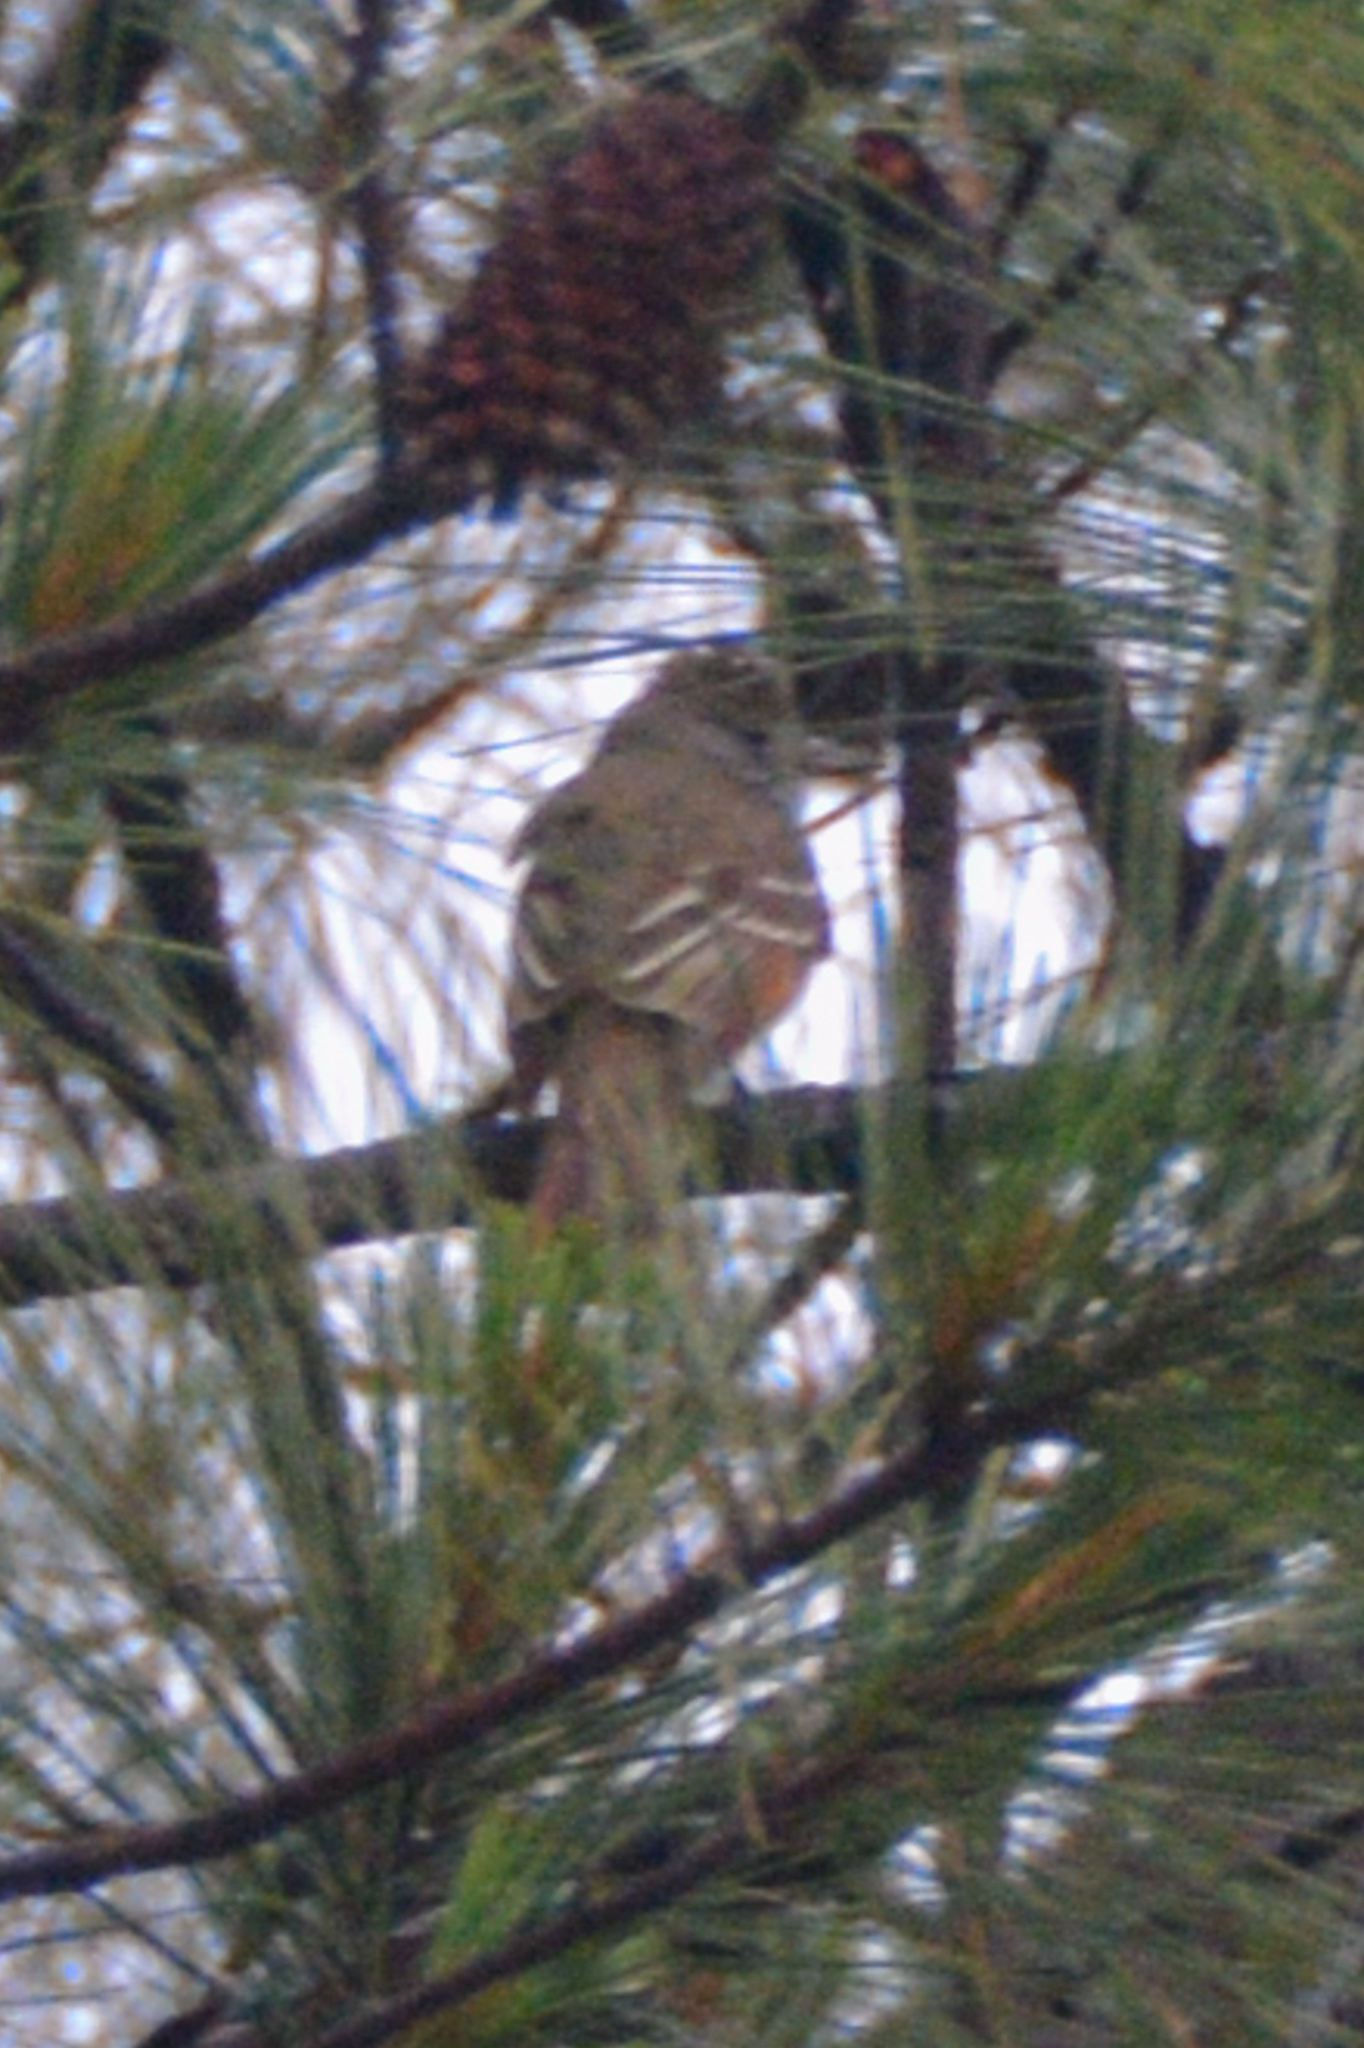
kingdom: Animalia
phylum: Chordata
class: Aves
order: Passeriformes
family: Tyrannidae
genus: Myiarchus
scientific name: Myiarchus crinitus
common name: Great crested flycatcher
